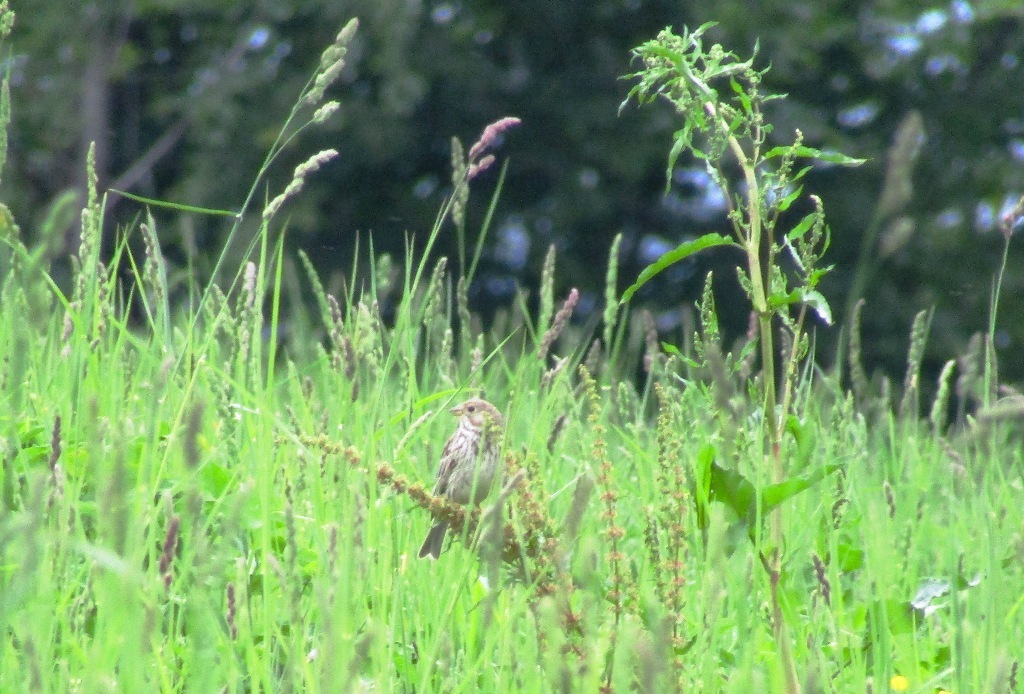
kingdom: Animalia
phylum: Chordata
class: Aves
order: Passeriformes
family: Emberizidae
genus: Emberiza
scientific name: Emberiza calandra
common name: Corn bunting
